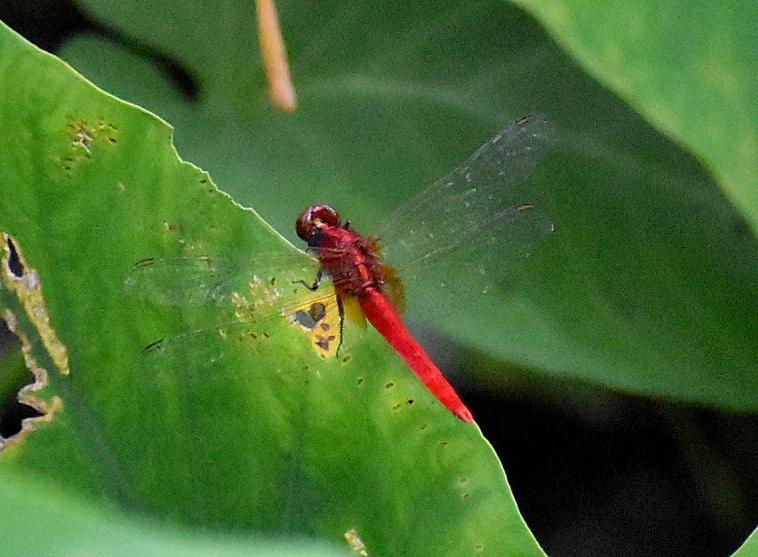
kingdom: Animalia
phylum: Arthropoda
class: Insecta
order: Odonata
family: Libellulidae
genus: Rhodothemis
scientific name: Rhodothemis rufa
